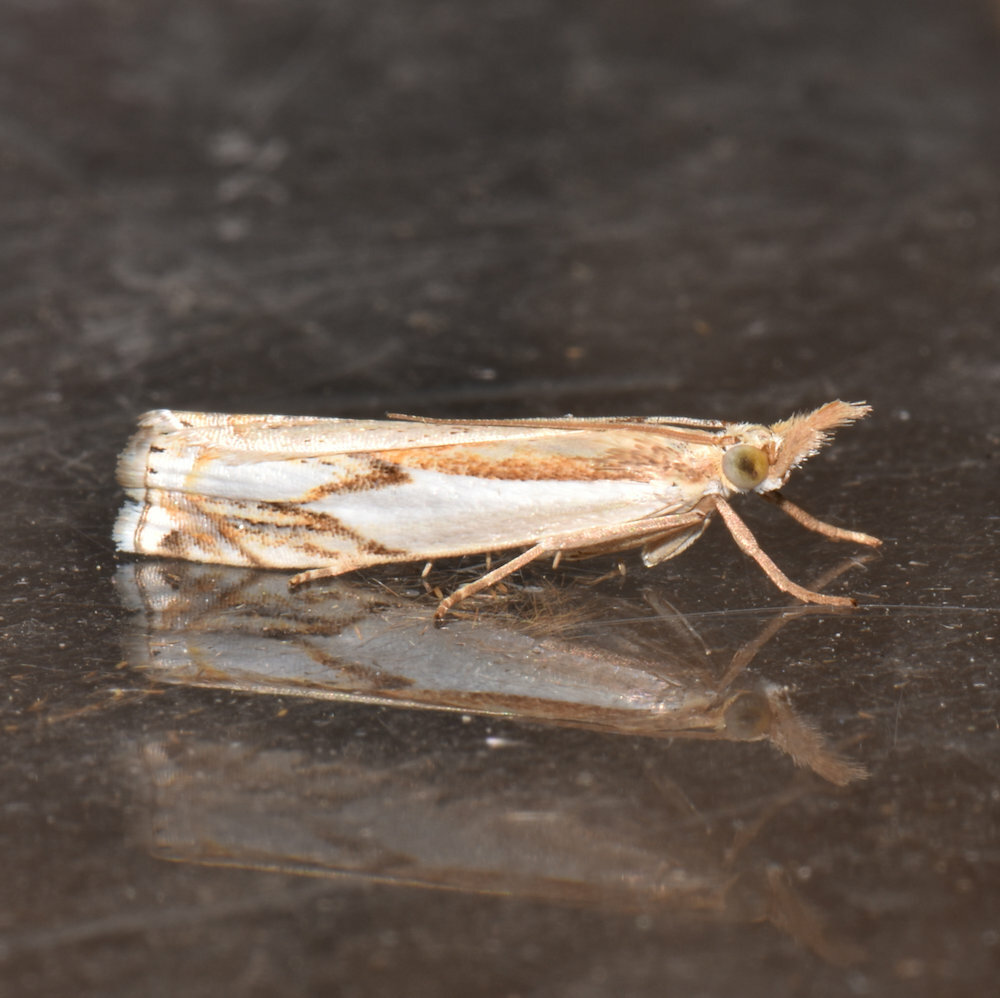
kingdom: Animalia
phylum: Arthropoda
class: Insecta
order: Lepidoptera
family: Crambidae
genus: Crambus
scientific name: Crambus agitatellus
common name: Double-banded grass-veneer
